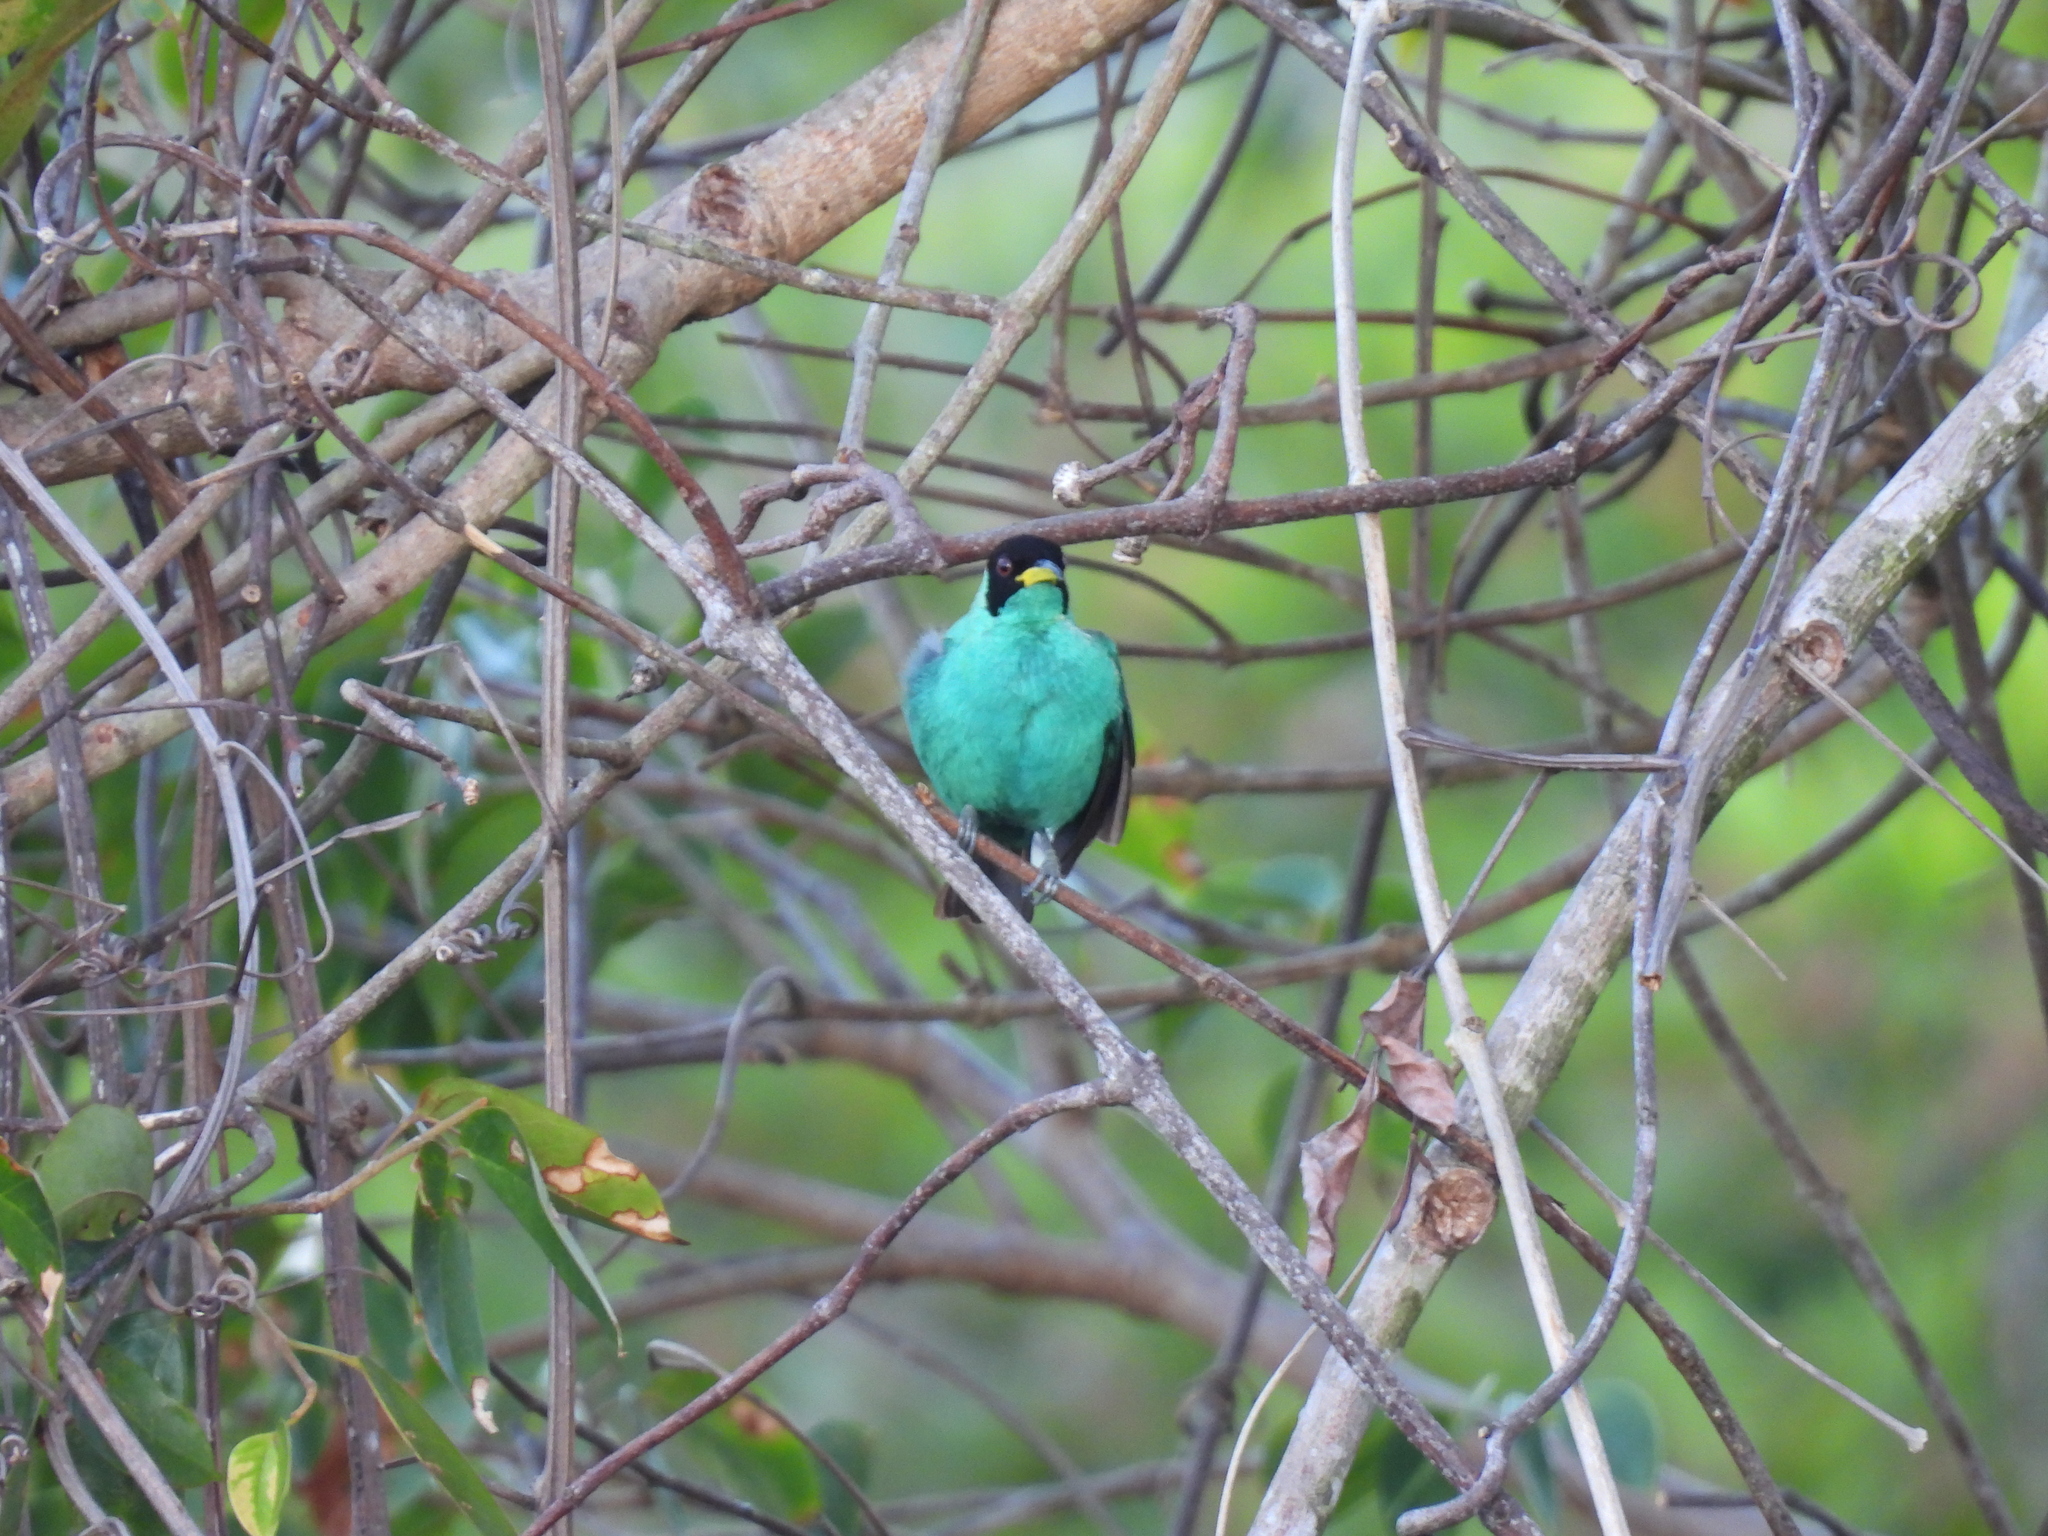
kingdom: Animalia
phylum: Chordata
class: Aves
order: Passeriformes
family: Thraupidae
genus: Chlorophanes
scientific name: Chlorophanes spiza
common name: Green honeycreeper
